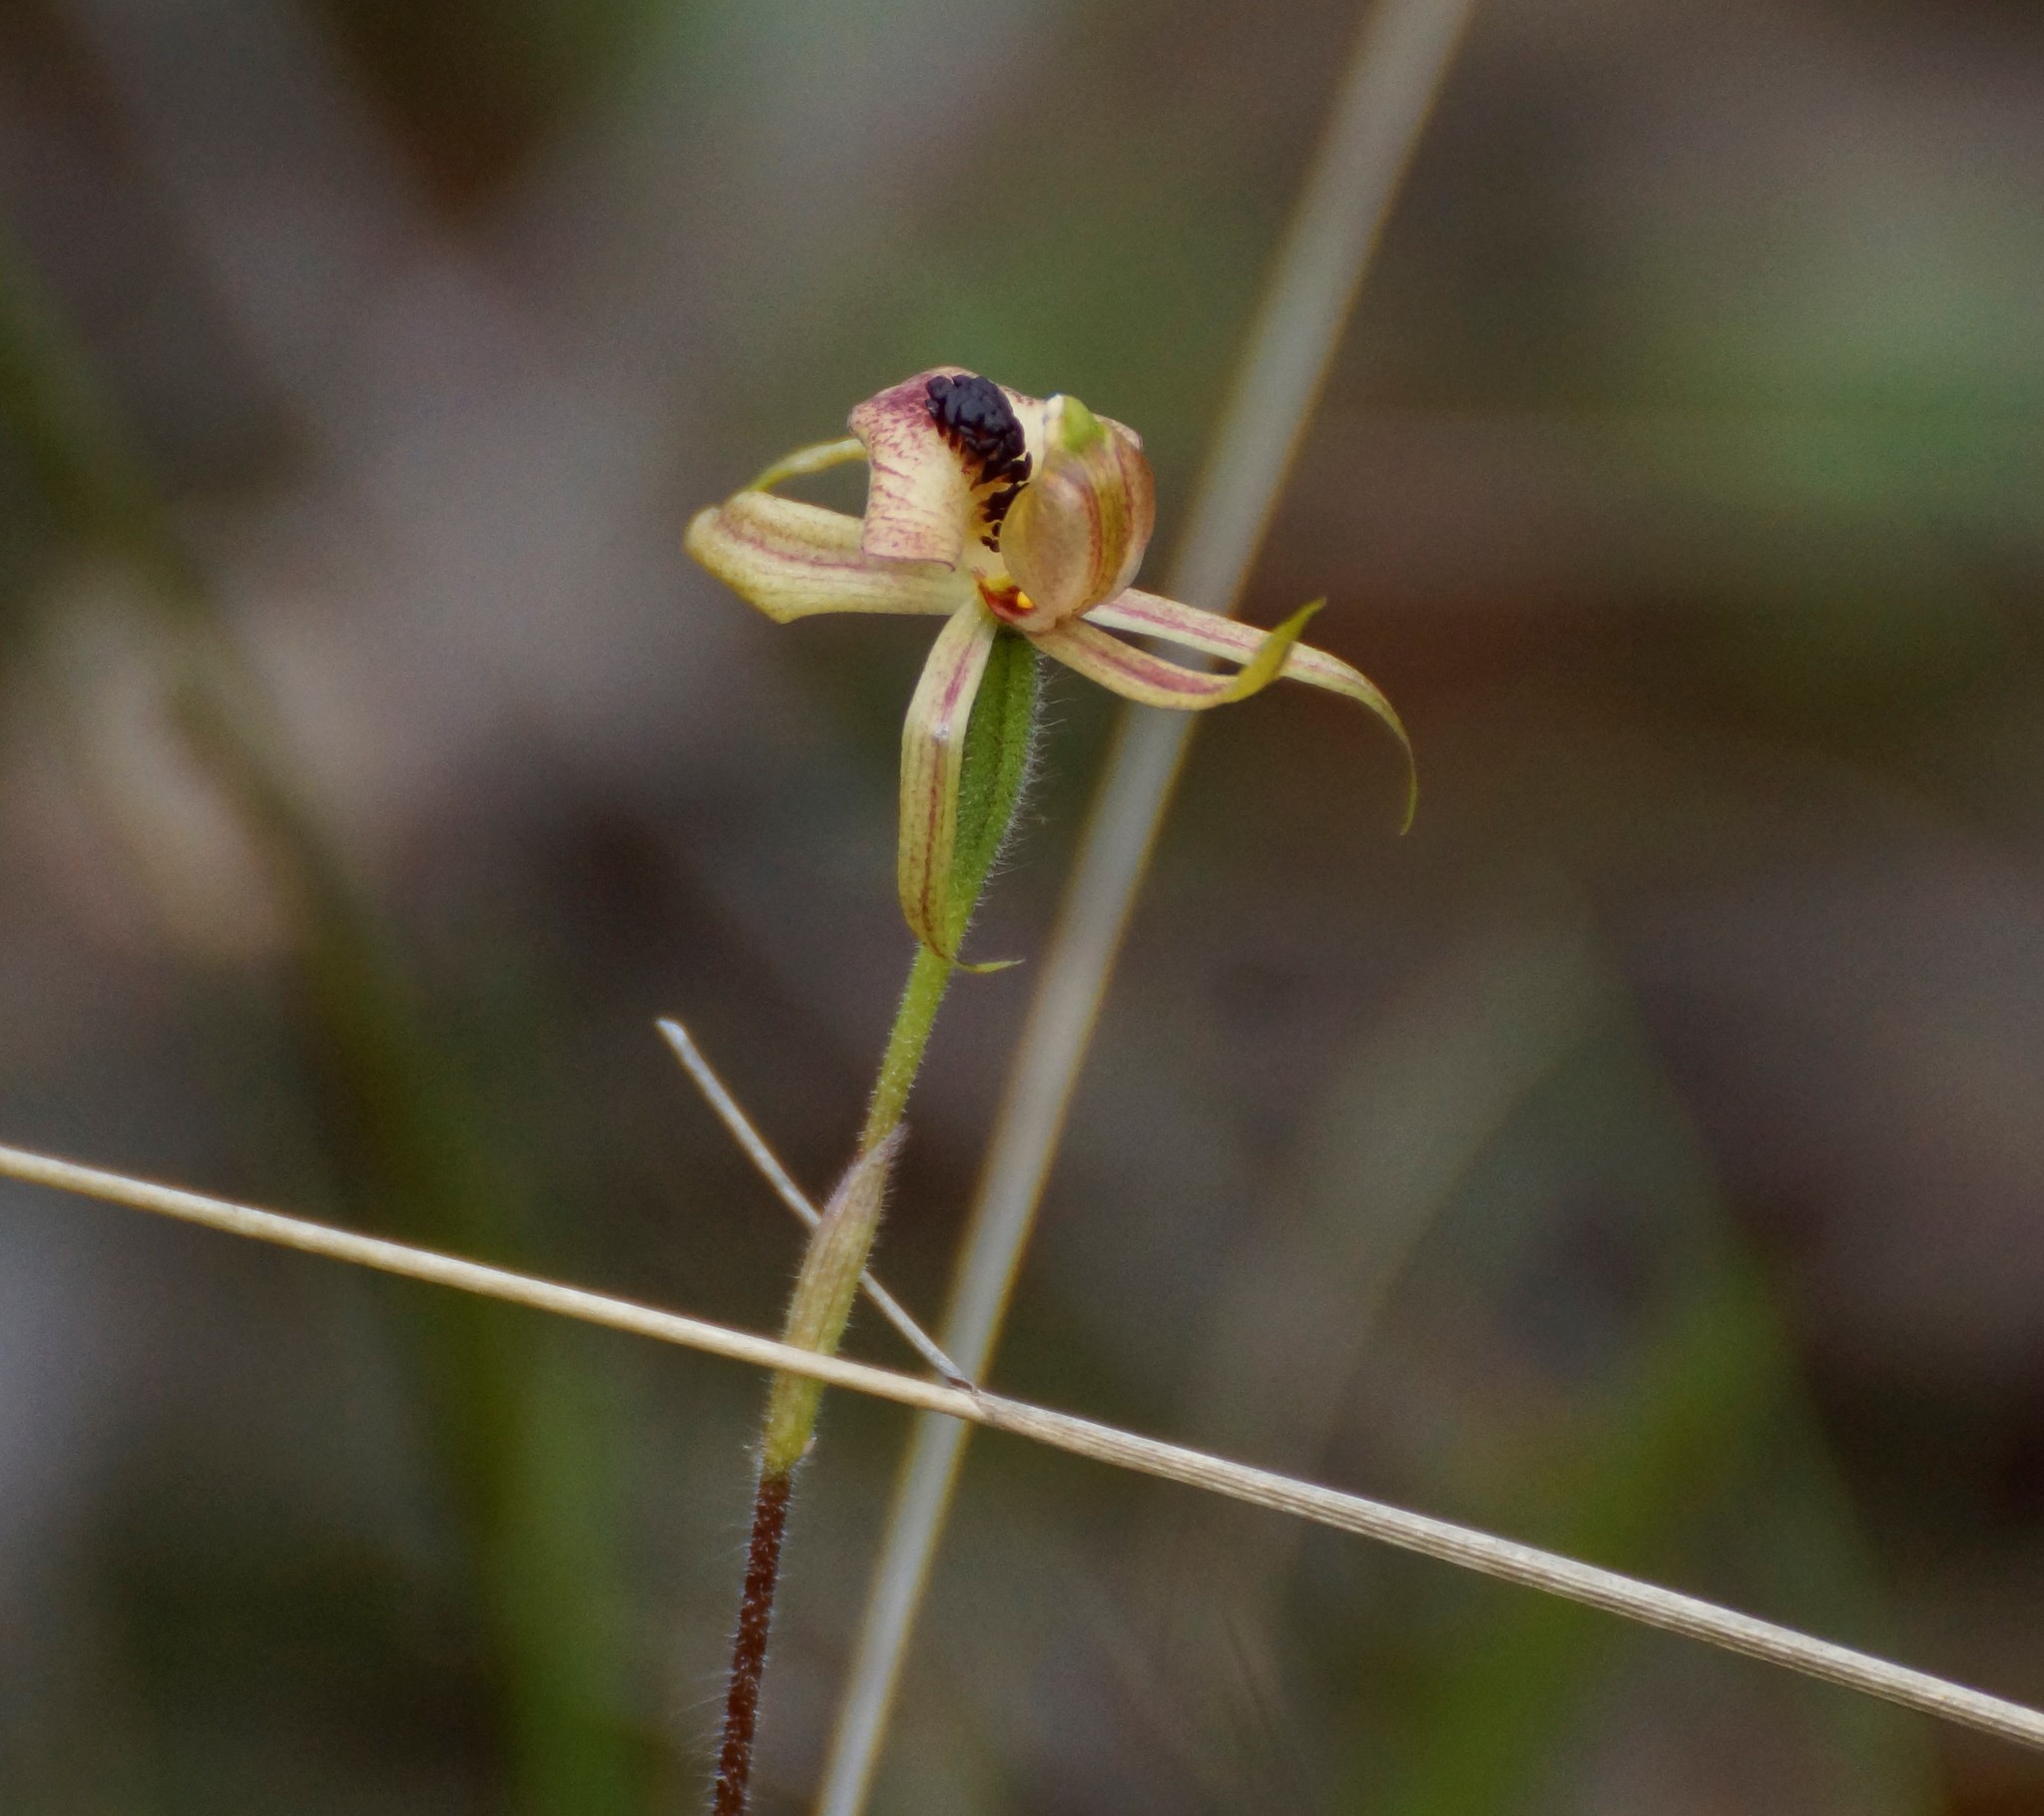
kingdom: Plantae
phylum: Tracheophyta
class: Liliopsida
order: Asparagales
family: Orchidaceae
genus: Caladenia
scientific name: Caladenia cardiochila
